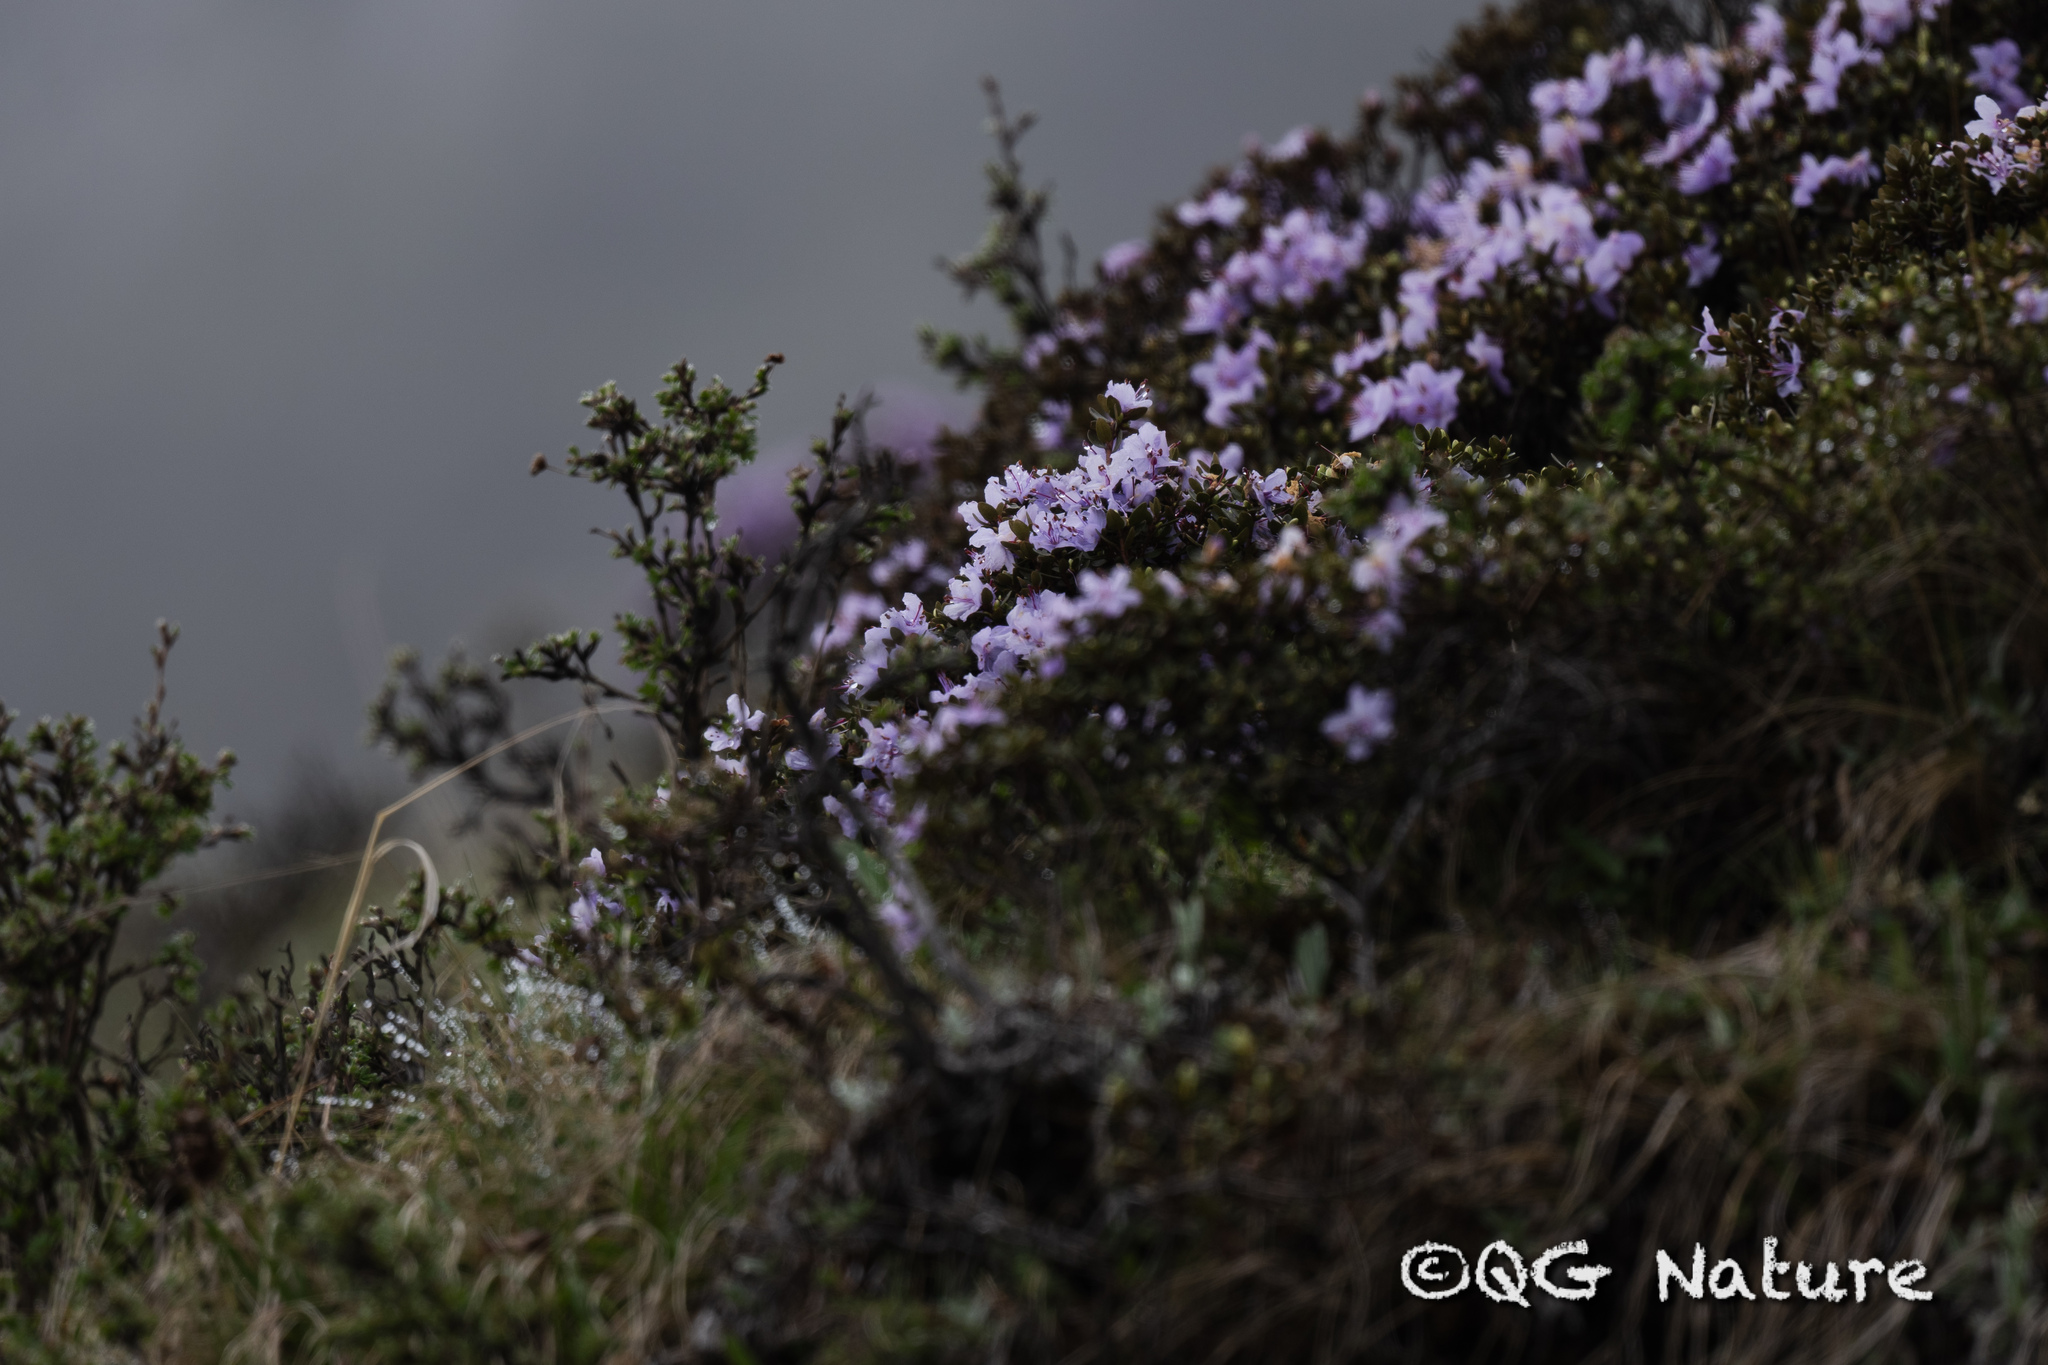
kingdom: Plantae
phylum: Tracheophyta
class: Magnoliopsida
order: Ericales
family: Ericaceae
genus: Rhododendron
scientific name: Rhododendron nivale
